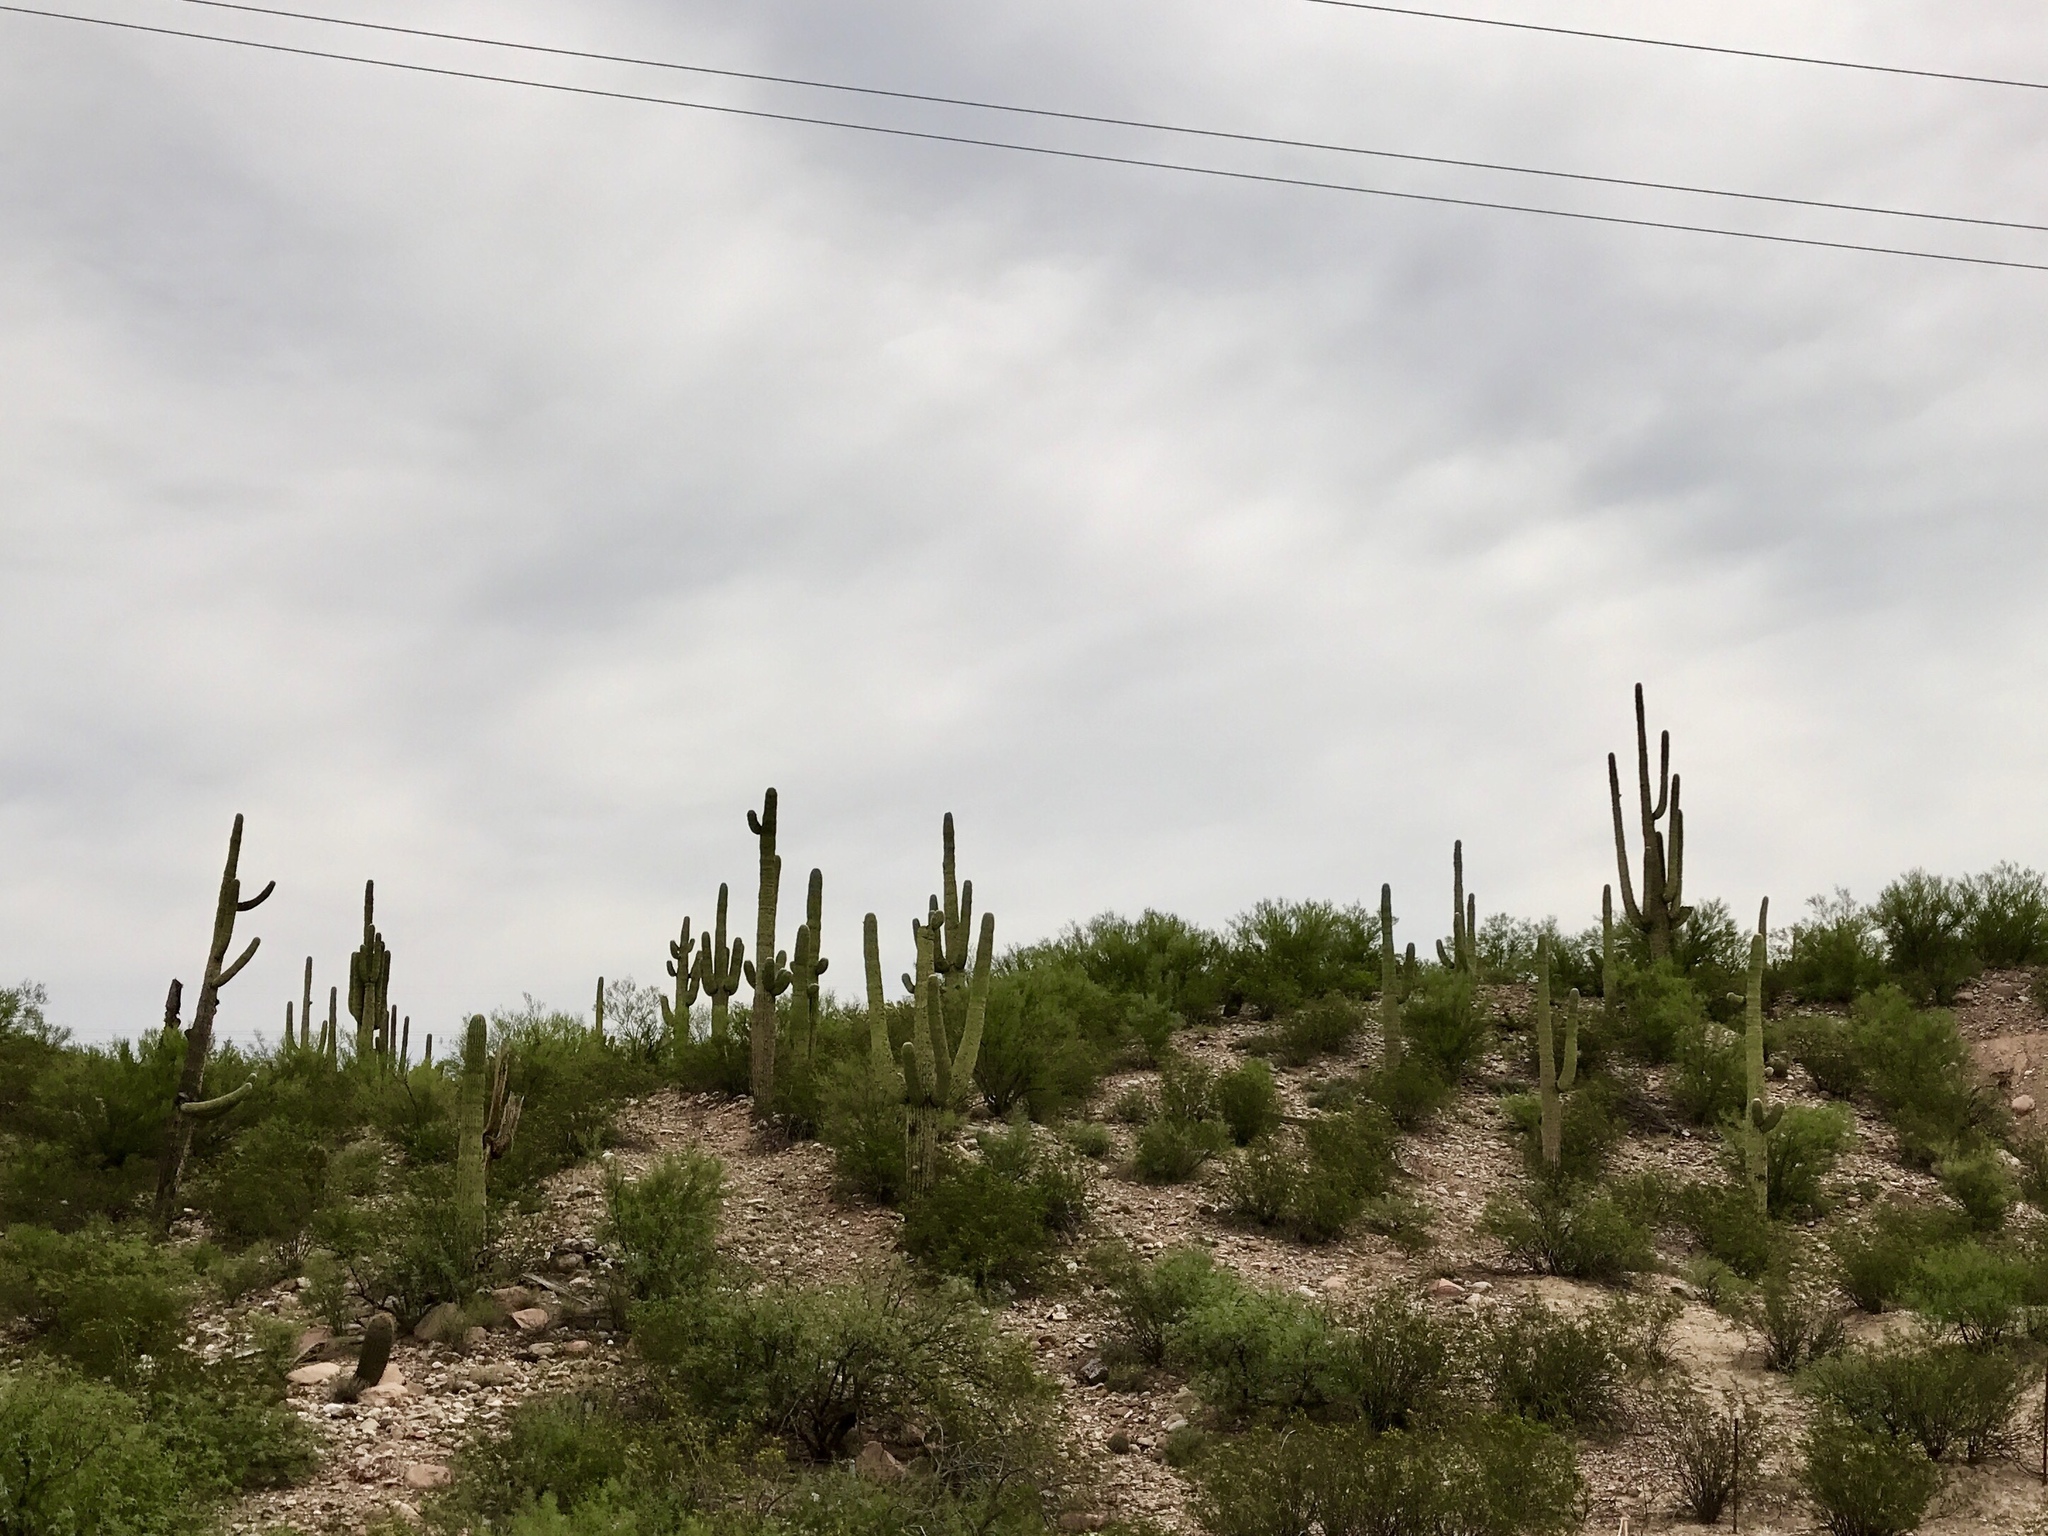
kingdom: Plantae
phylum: Tracheophyta
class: Magnoliopsida
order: Caryophyllales
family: Cactaceae
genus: Carnegiea
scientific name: Carnegiea gigantea
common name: Saguaro
